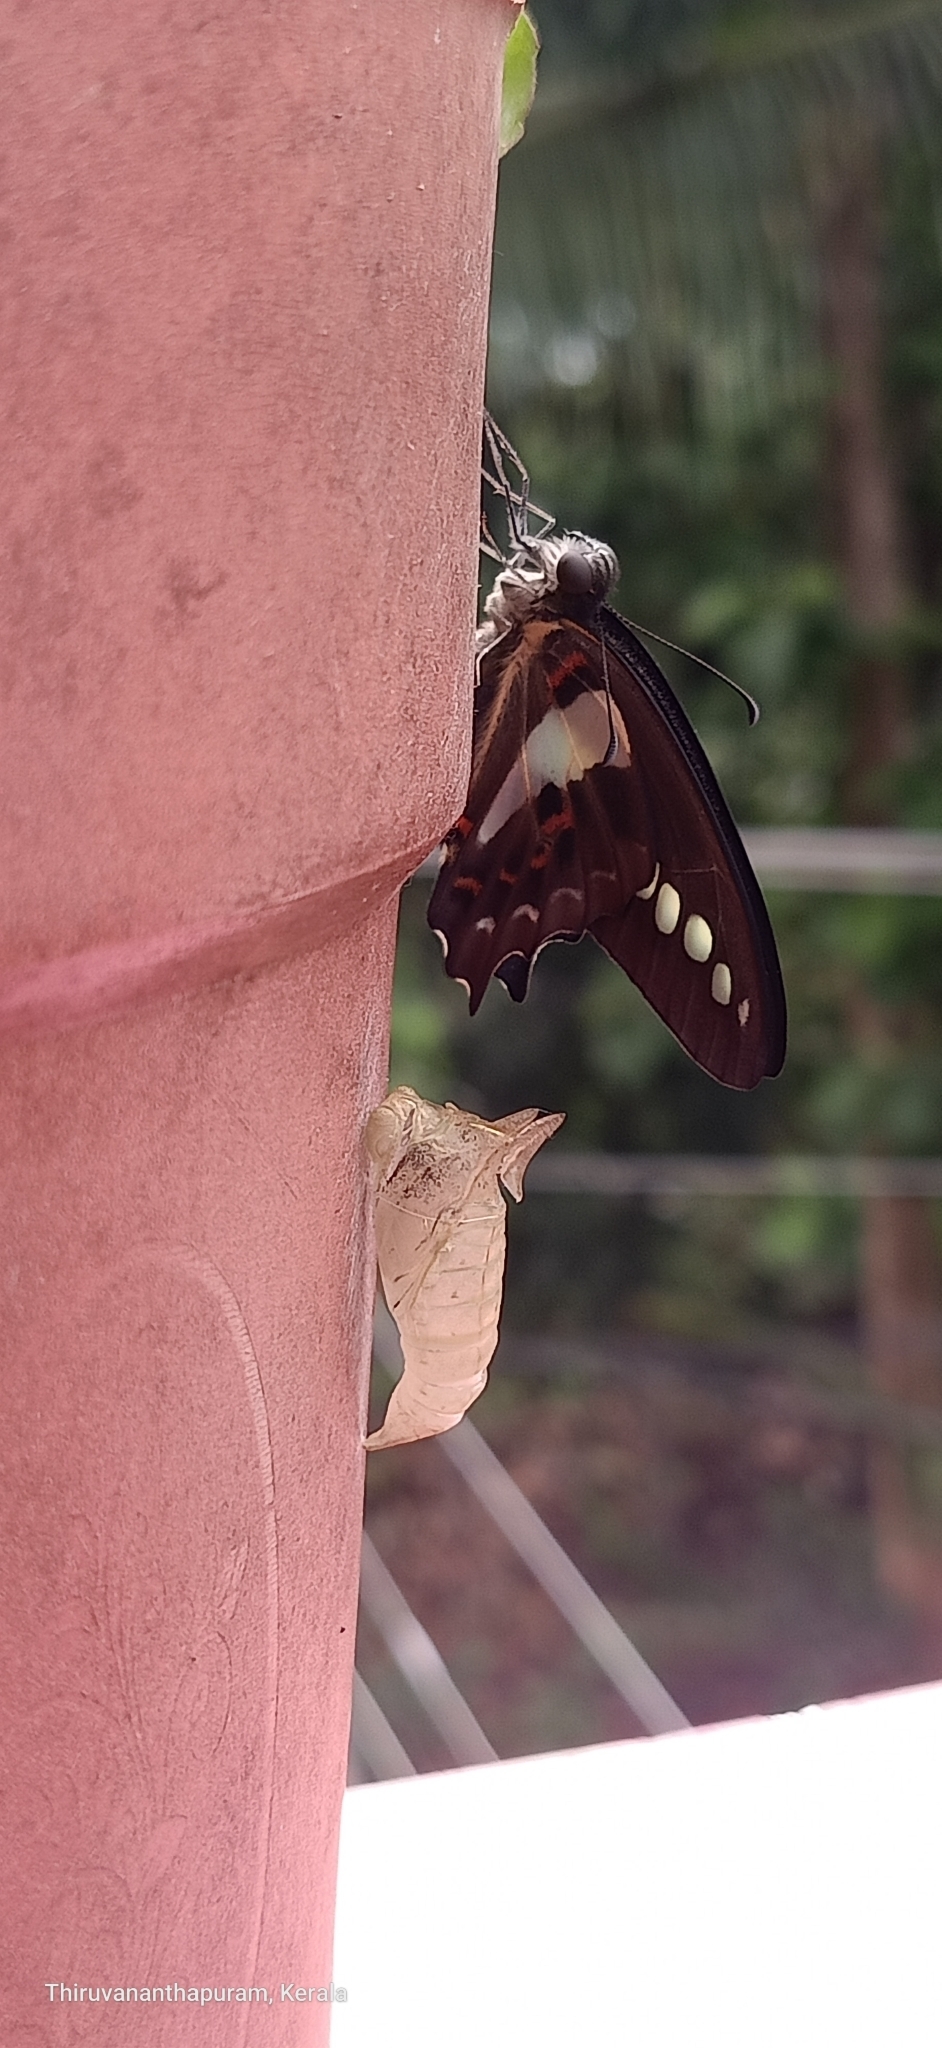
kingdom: Animalia
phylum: Arthropoda
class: Insecta
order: Lepidoptera
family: Papilionidae
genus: Graphium
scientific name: Graphium
